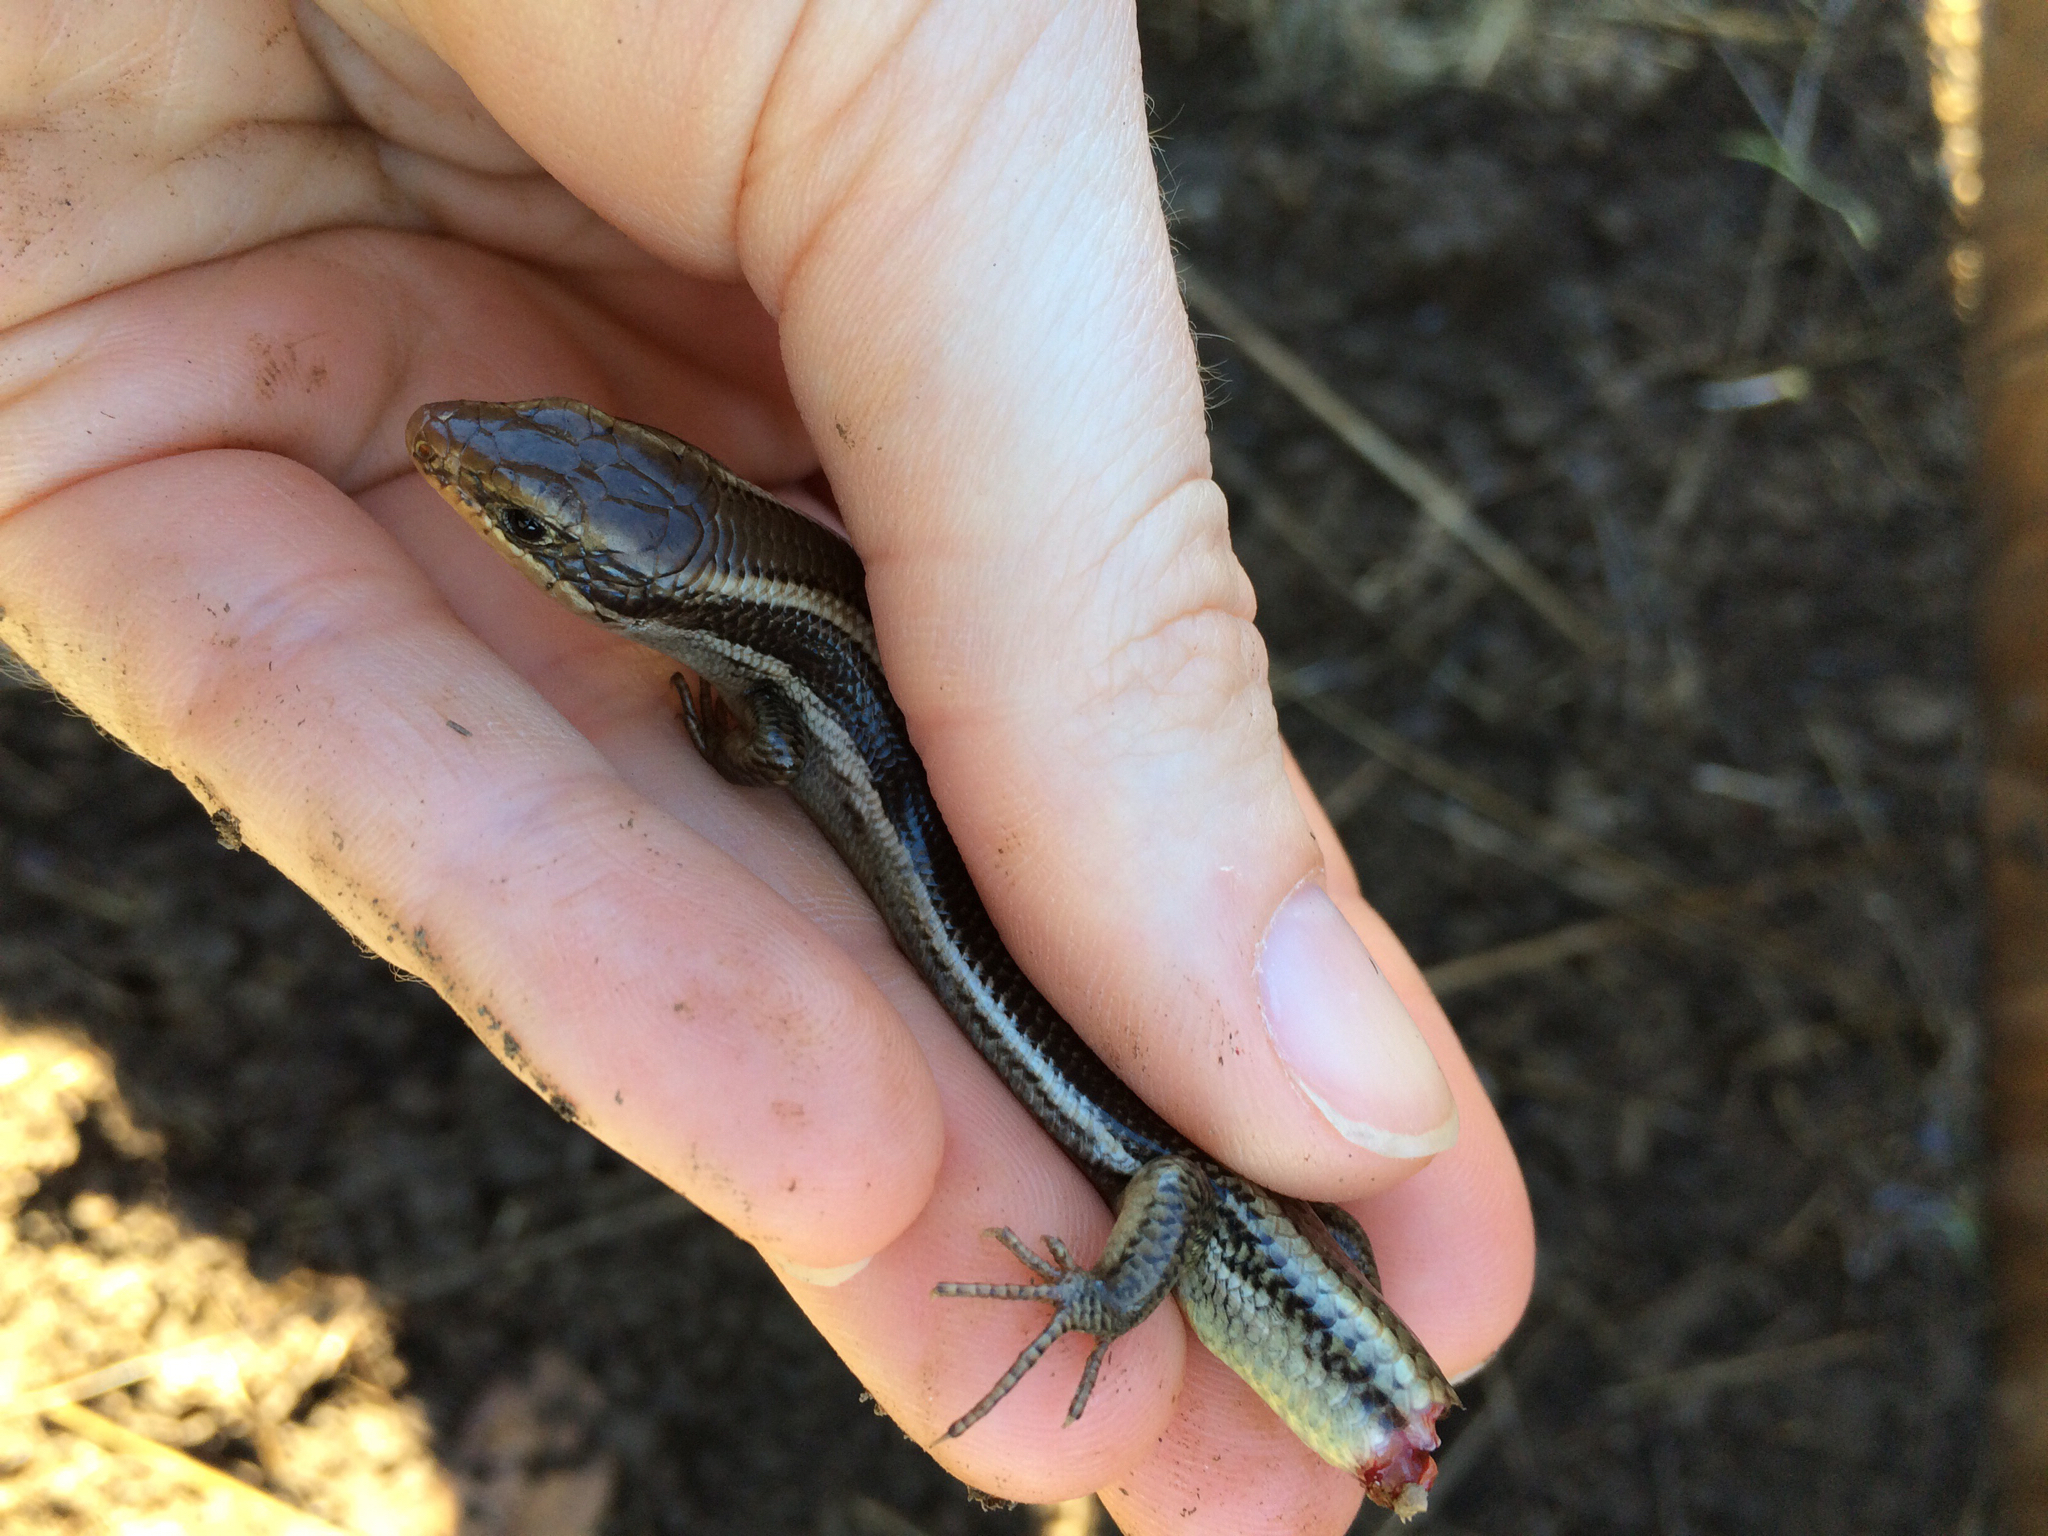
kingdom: Animalia
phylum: Chordata
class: Squamata
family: Scincidae
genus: Plestiodon
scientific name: Plestiodon skiltonianus
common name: Coronado island skink [interparietalis]
